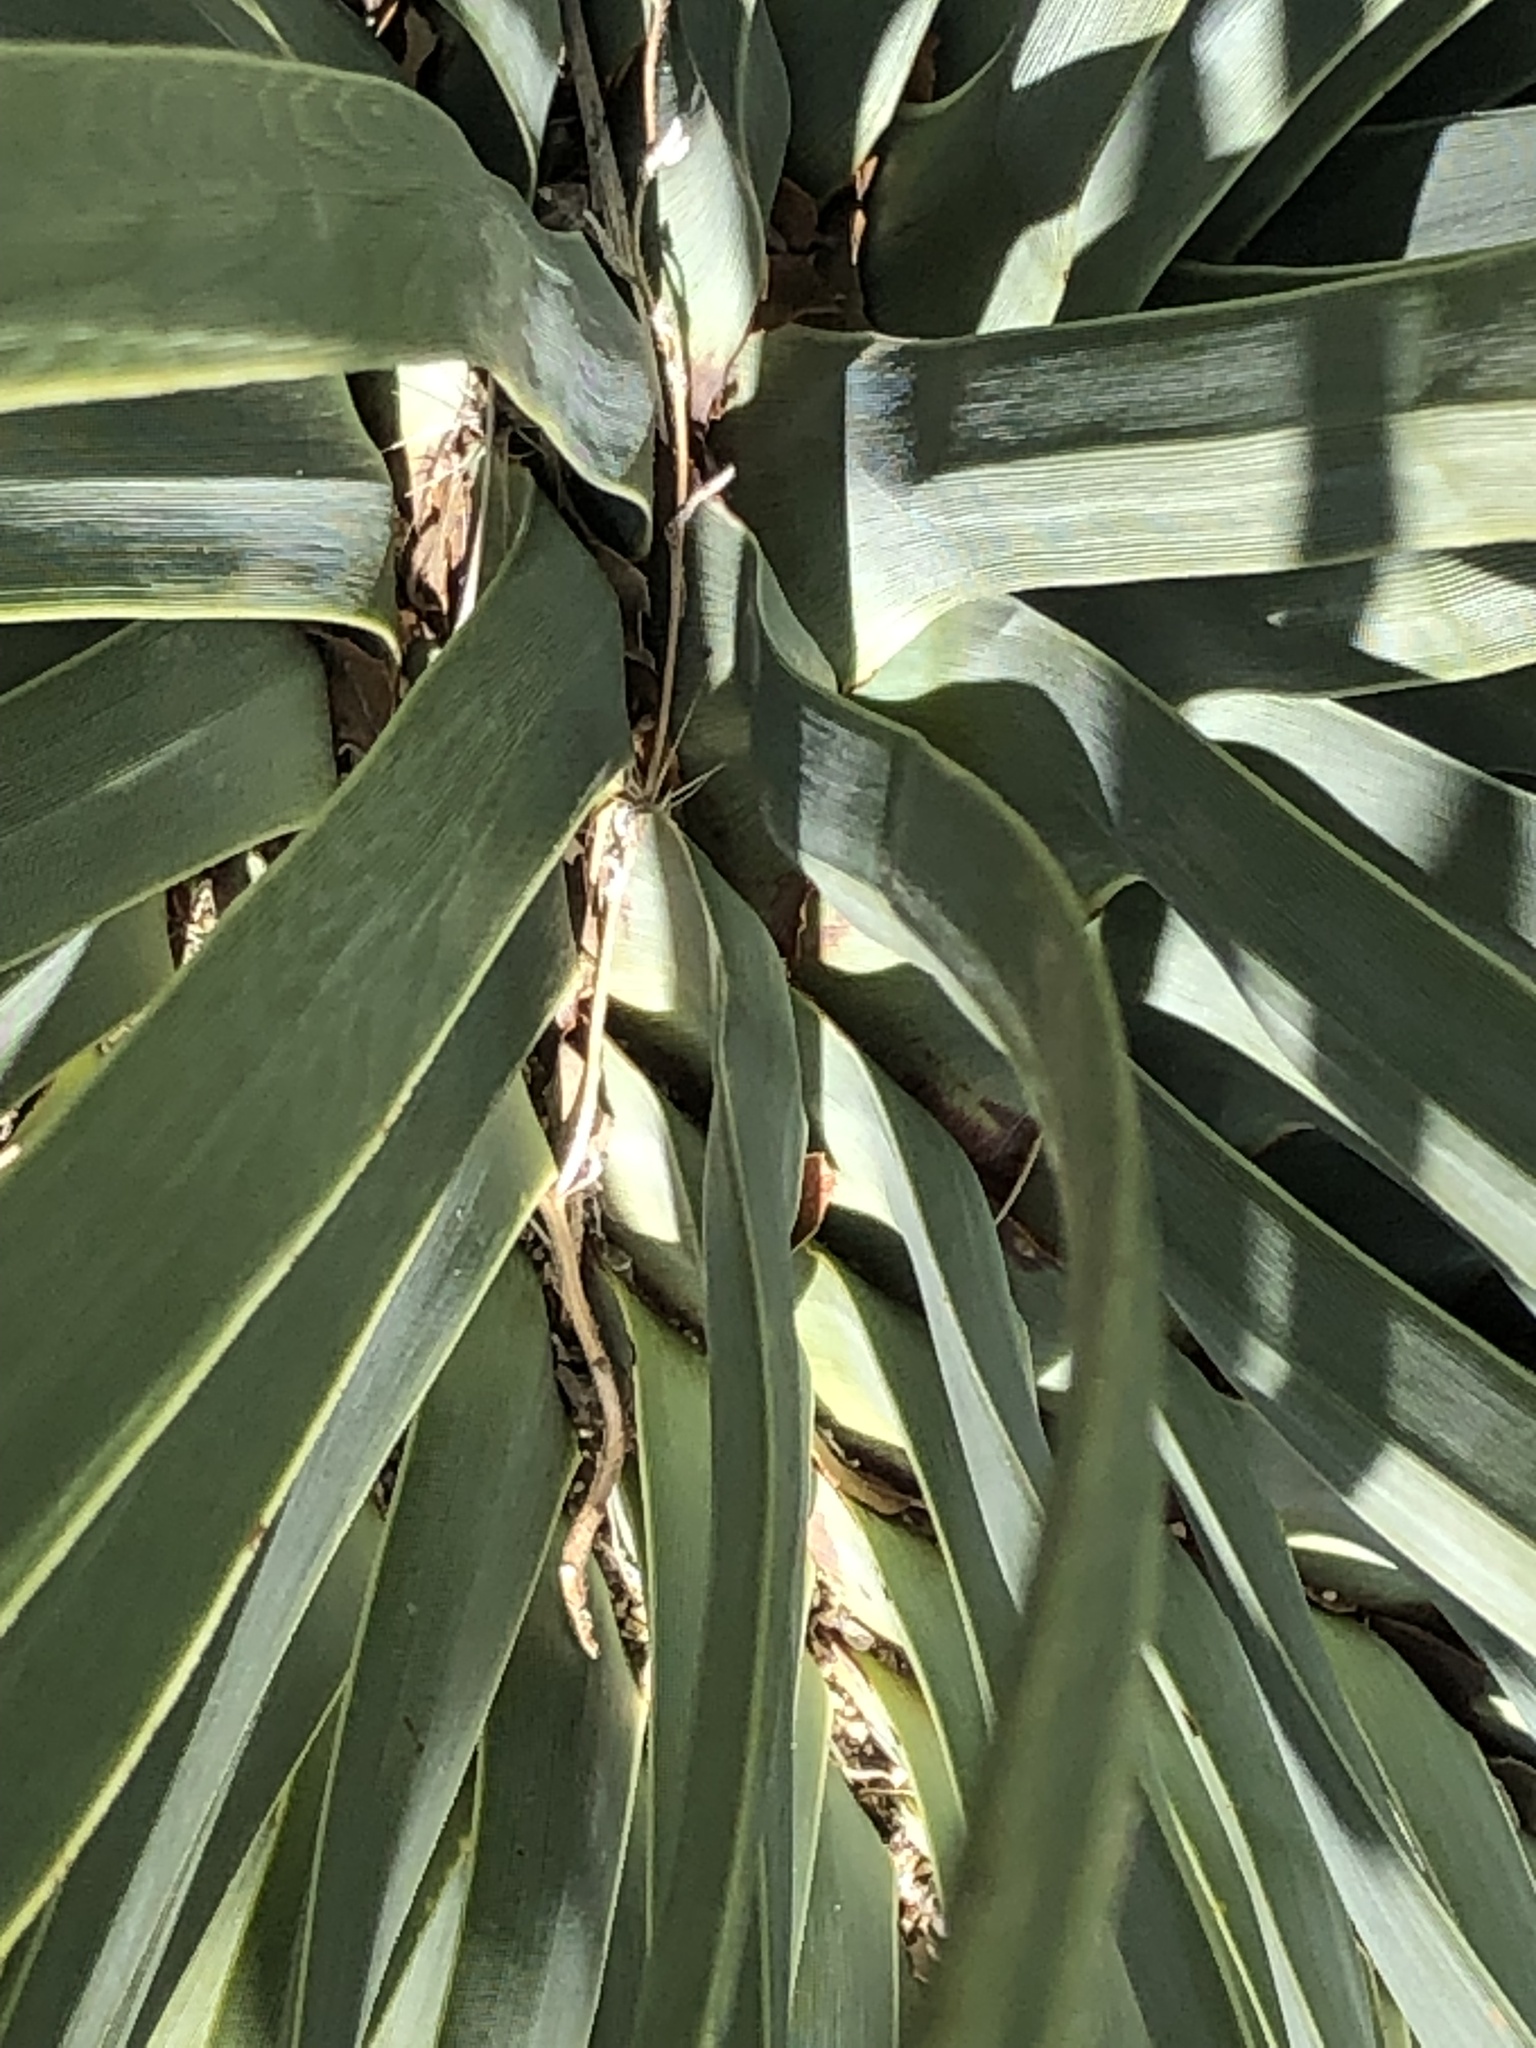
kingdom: Plantae
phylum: Tracheophyta
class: Liliopsida
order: Asparagales
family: Asparagaceae
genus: Hesperoyucca
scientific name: Hesperoyucca whipplei
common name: Our lord's-candle
